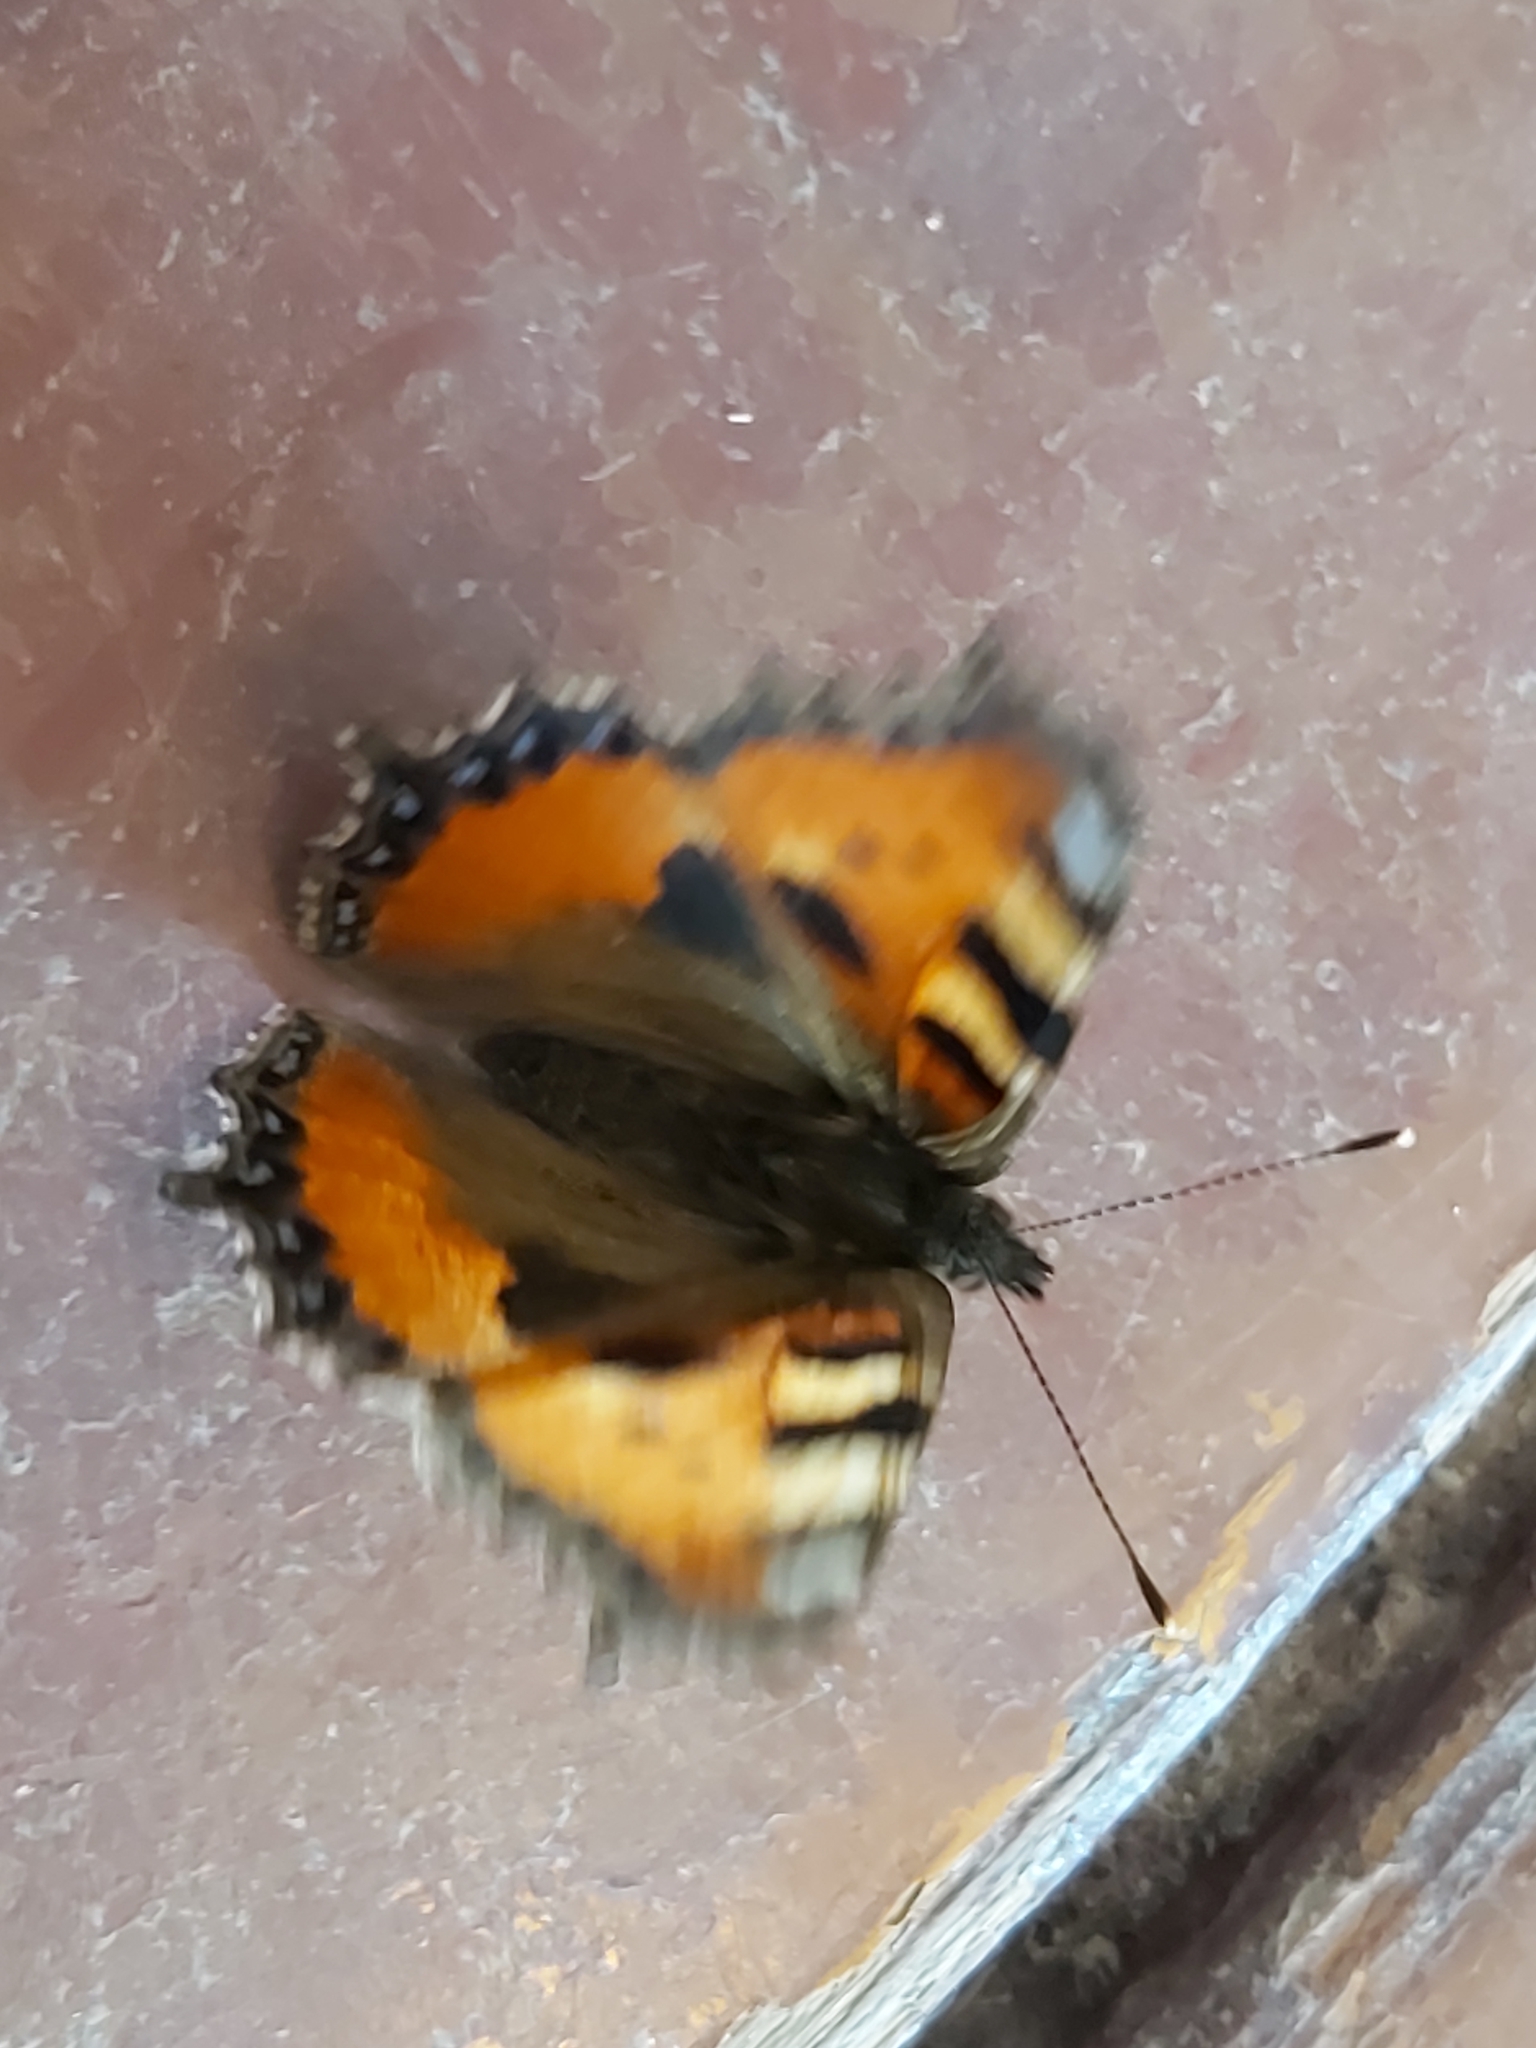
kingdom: Animalia
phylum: Arthropoda
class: Insecta
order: Lepidoptera
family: Nymphalidae
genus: Aglais
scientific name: Aglais urticae
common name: Small tortoiseshell
